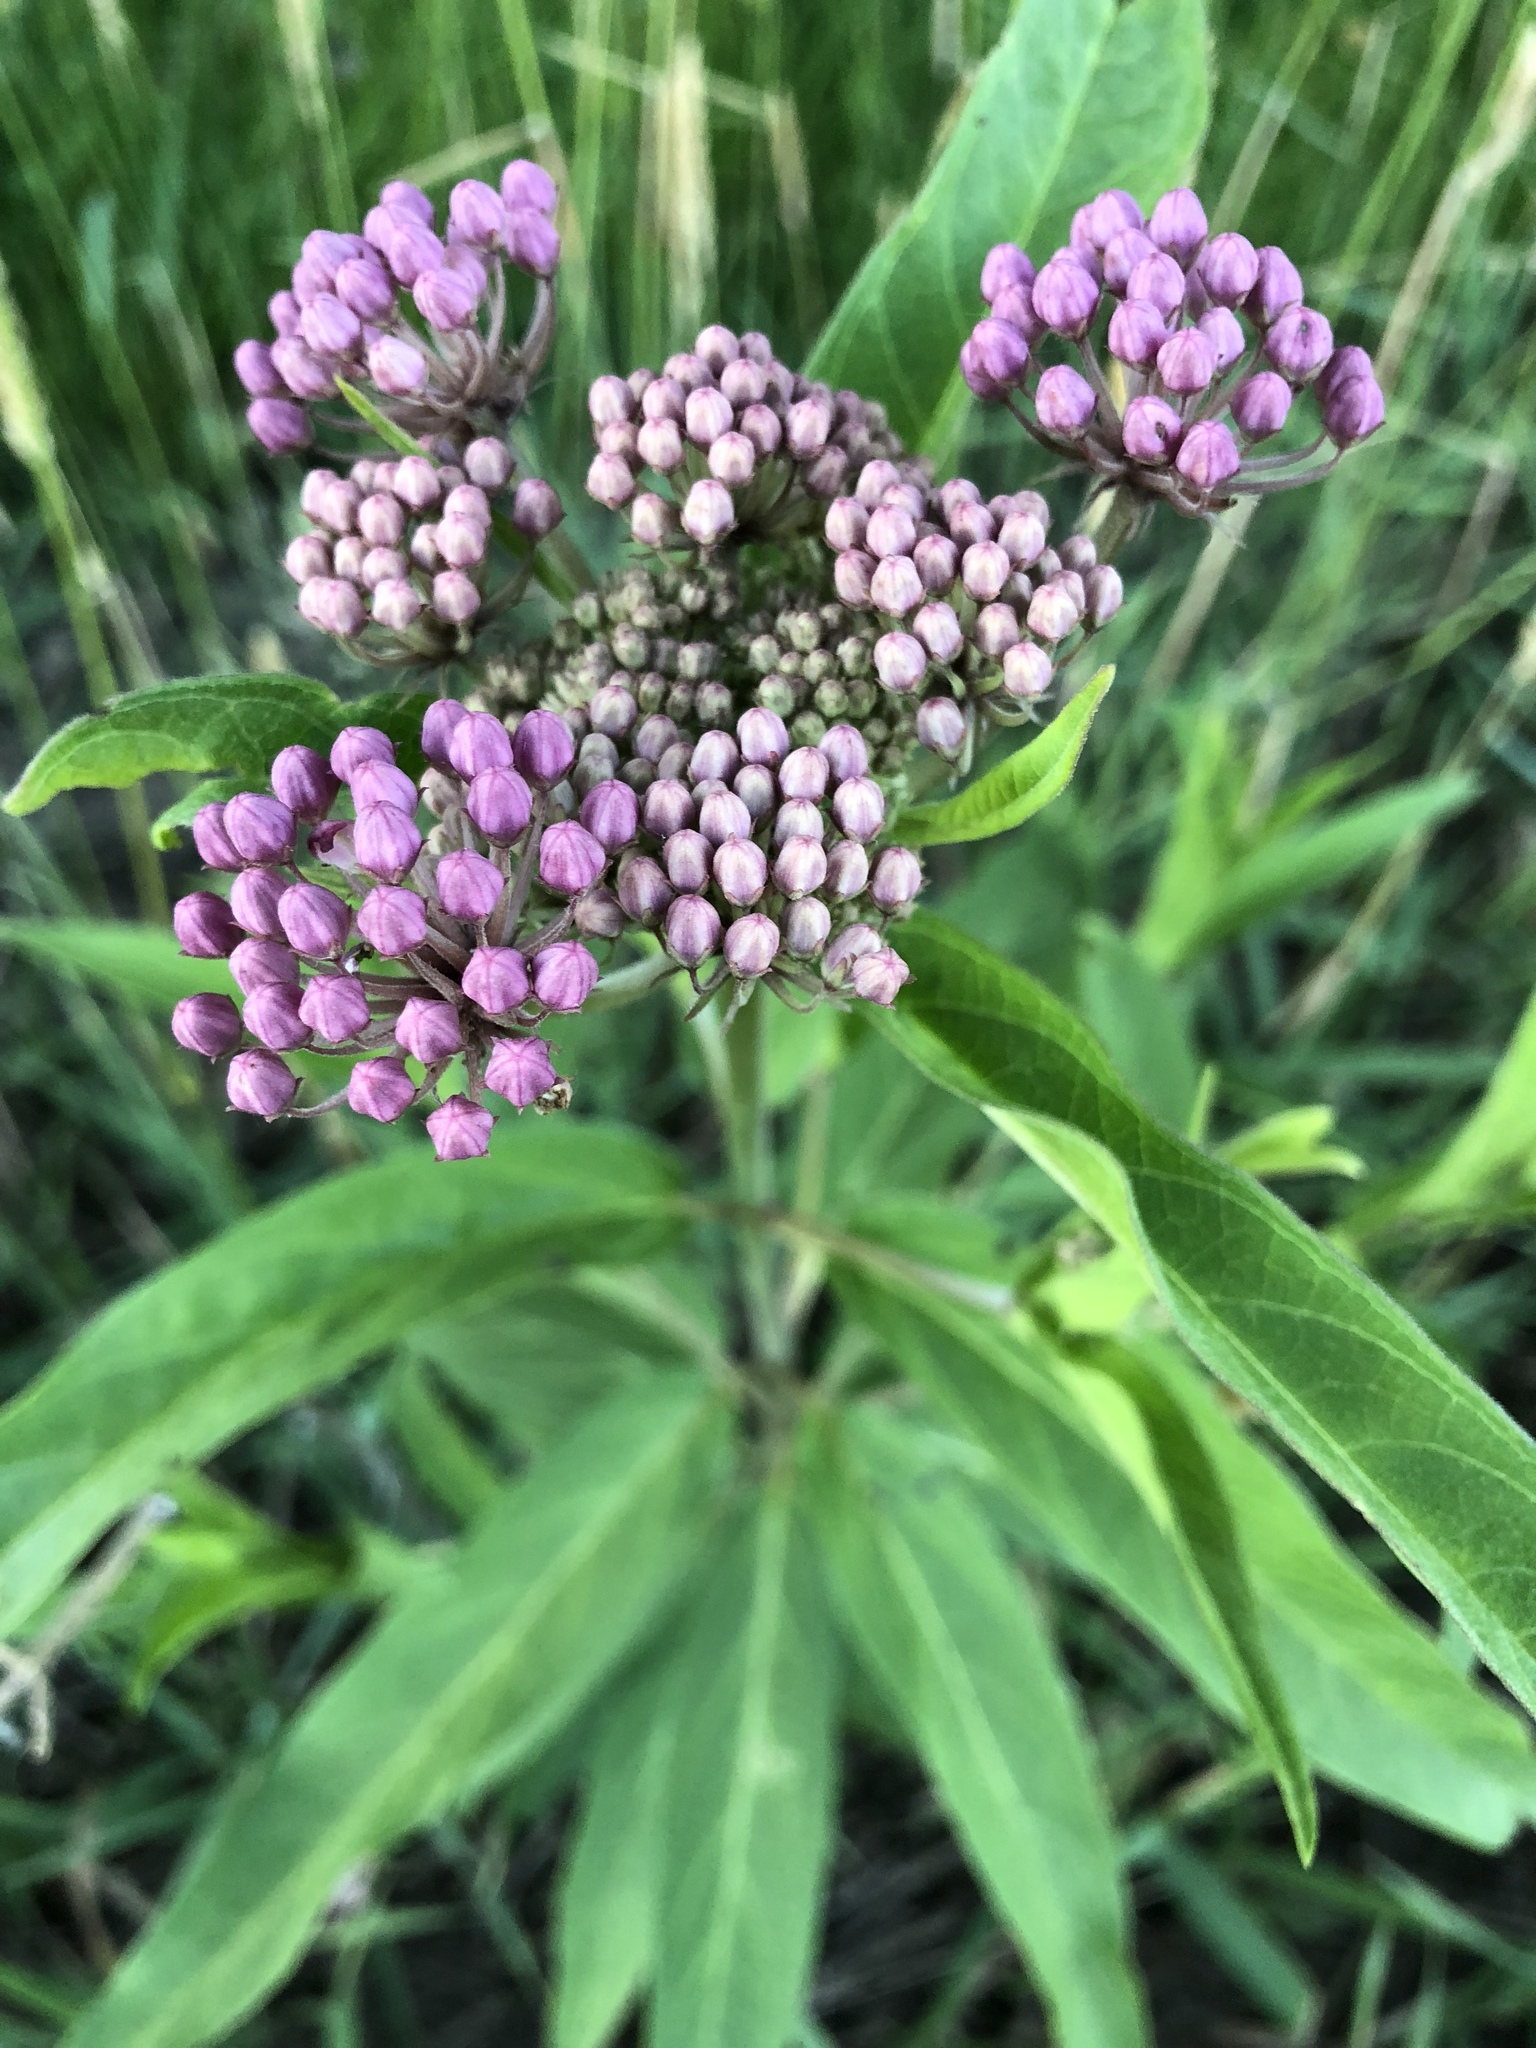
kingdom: Plantae
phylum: Tracheophyta
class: Magnoliopsida
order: Gentianales
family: Apocynaceae
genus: Asclepias
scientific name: Asclepias incarnata
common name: Swamp milkweed
